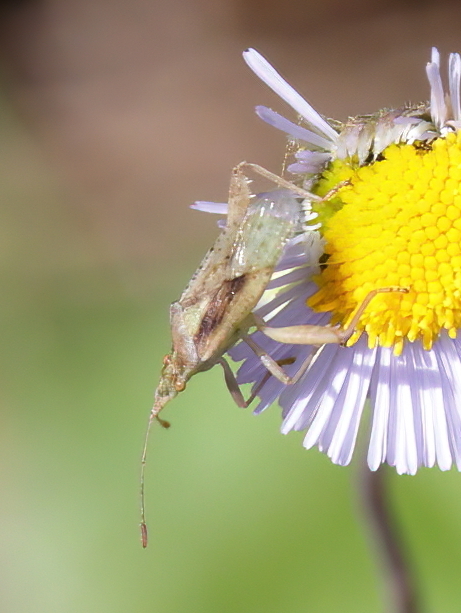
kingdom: Animalia
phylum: Arthropoda
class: Insecta
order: Hemiptera
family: Rhopalidae
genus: Harmostes
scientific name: Harmostes reflexulus
